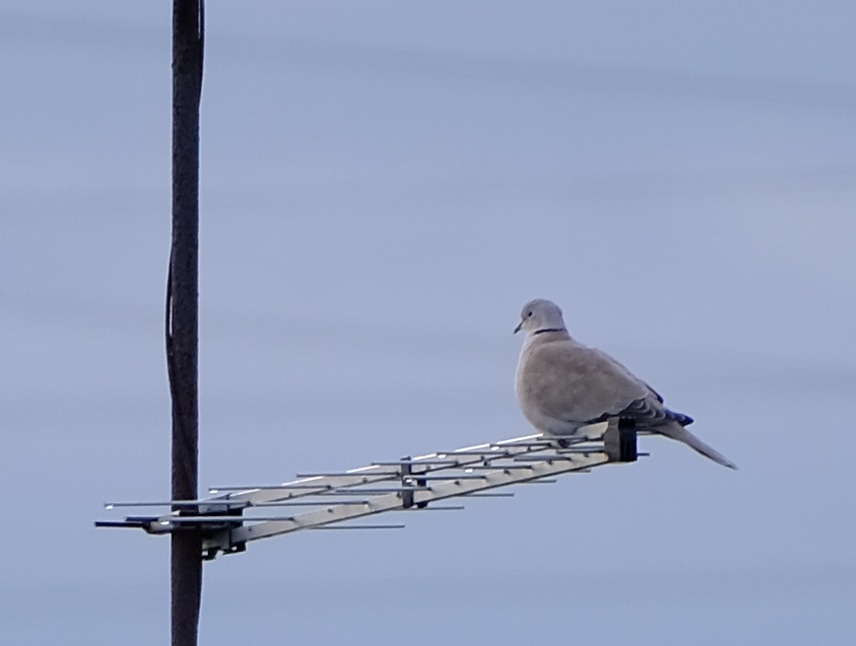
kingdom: Animalia
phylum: Chordata
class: Aves
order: Columbiformes
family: Columbidae
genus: Streptopelia
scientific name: Streptopelia decaocto
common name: Eurasian collared dove
